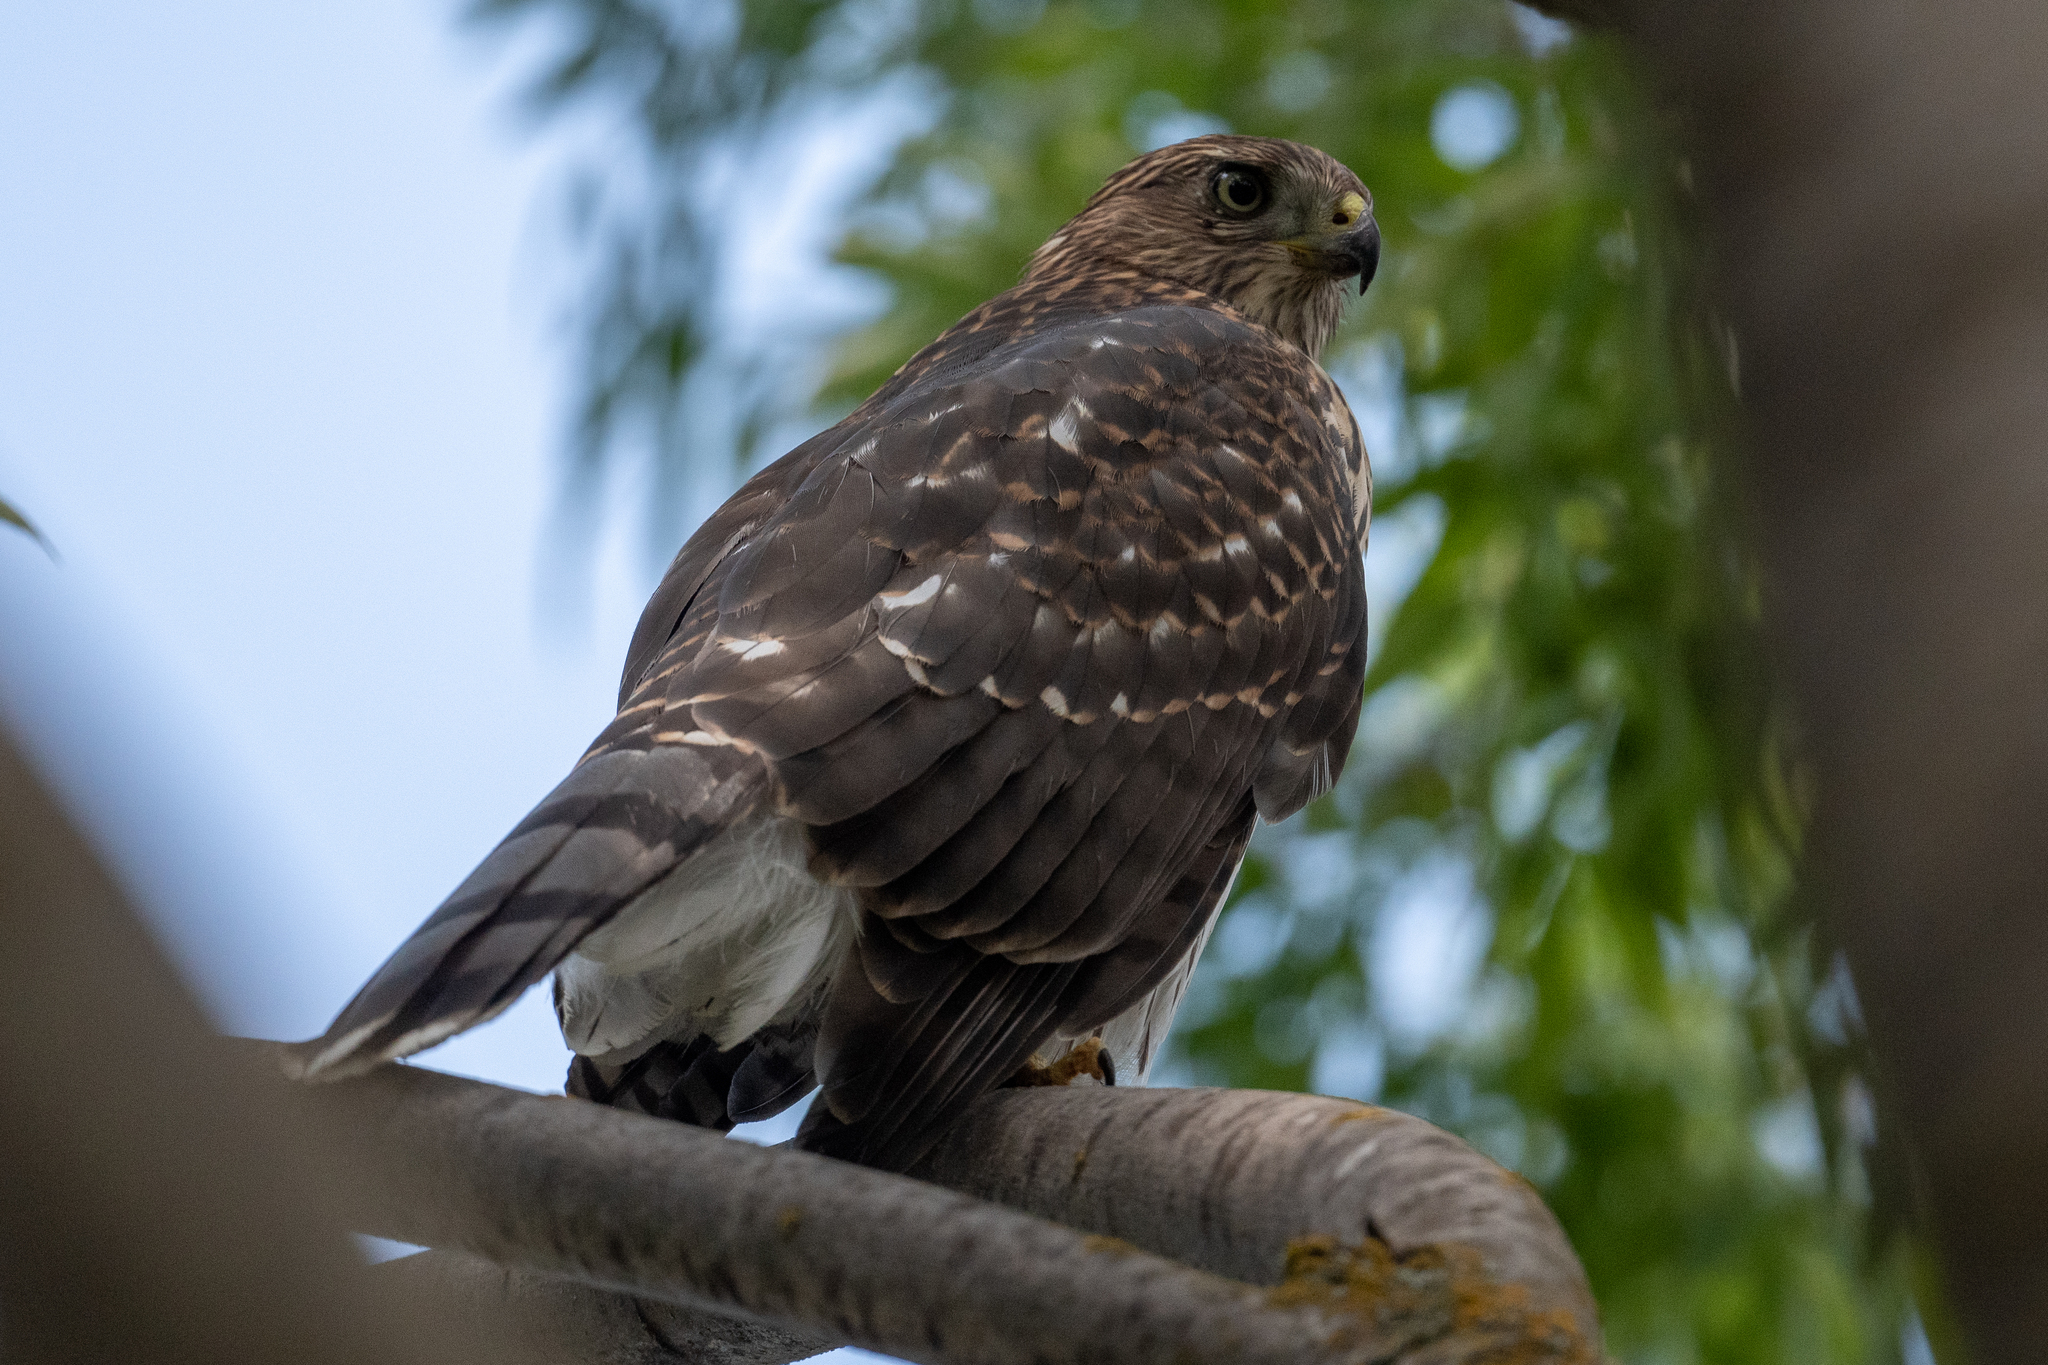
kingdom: Animalia
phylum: Chordata
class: Aves
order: Accipitriformes
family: Accipitridae
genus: Accipiter
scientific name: Accipiter cooperii
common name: Cooper's hawk
